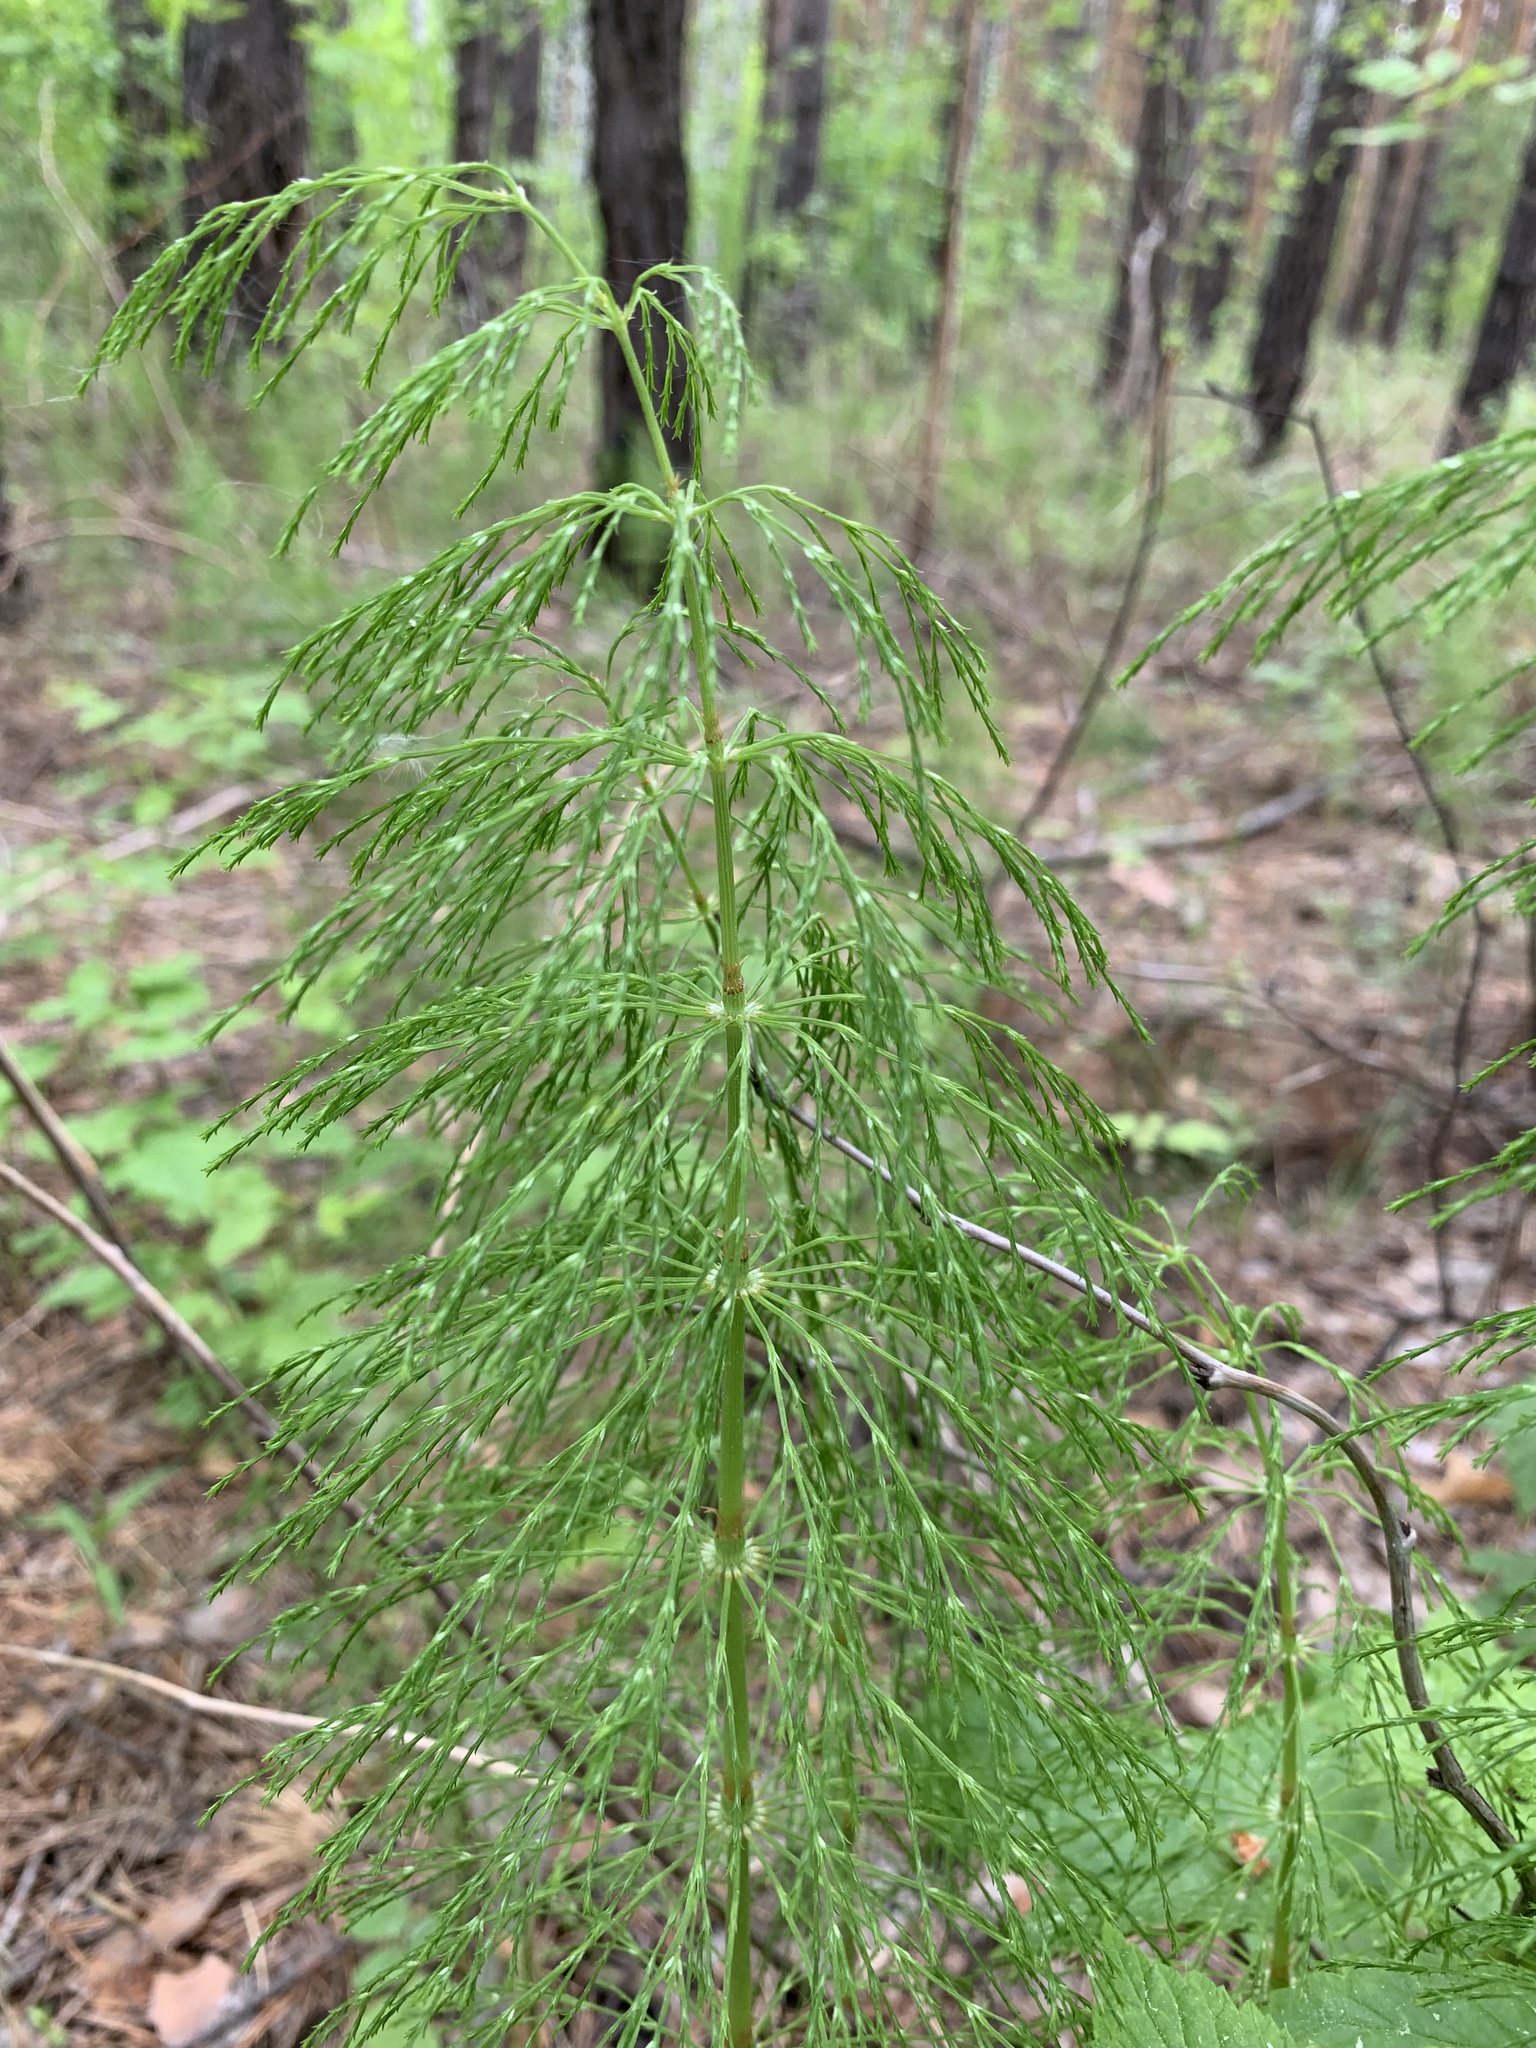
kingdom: Plantae
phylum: Tracheophyta
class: Polypodiopsida
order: Equisetales
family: Equisetaceae
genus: Equisetum
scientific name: Equisetum sylvaticum
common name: Wood horsetail
